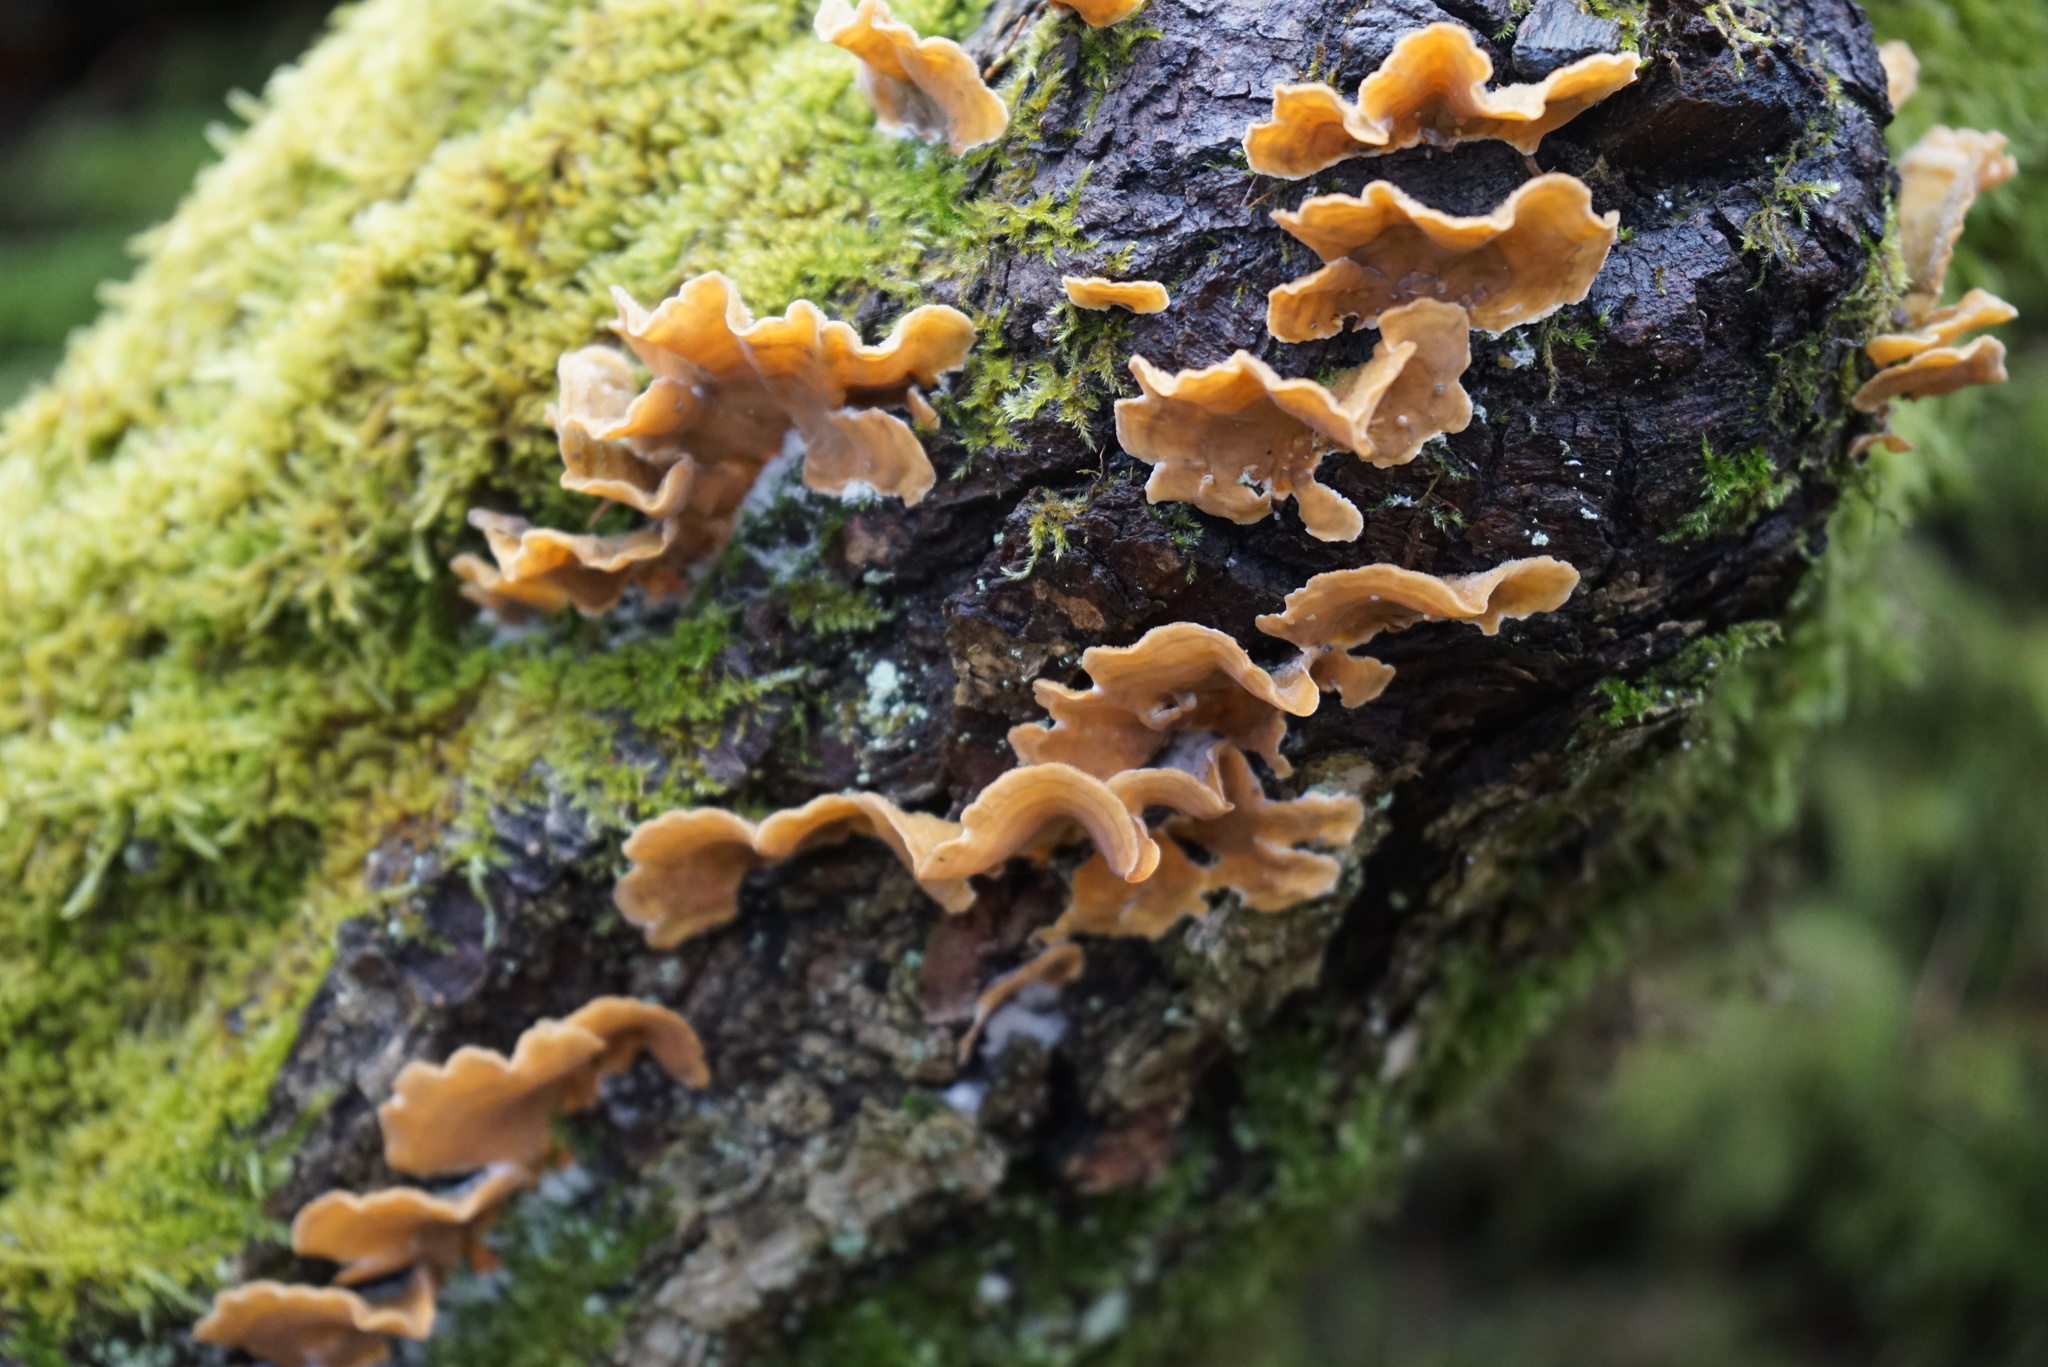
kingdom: Fungi
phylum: Basidiomycota
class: Agaricomycetes
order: Russulales
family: Stereaceae
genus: Stereum
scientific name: Stereum hirsutum
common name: Hairy curtain crust
